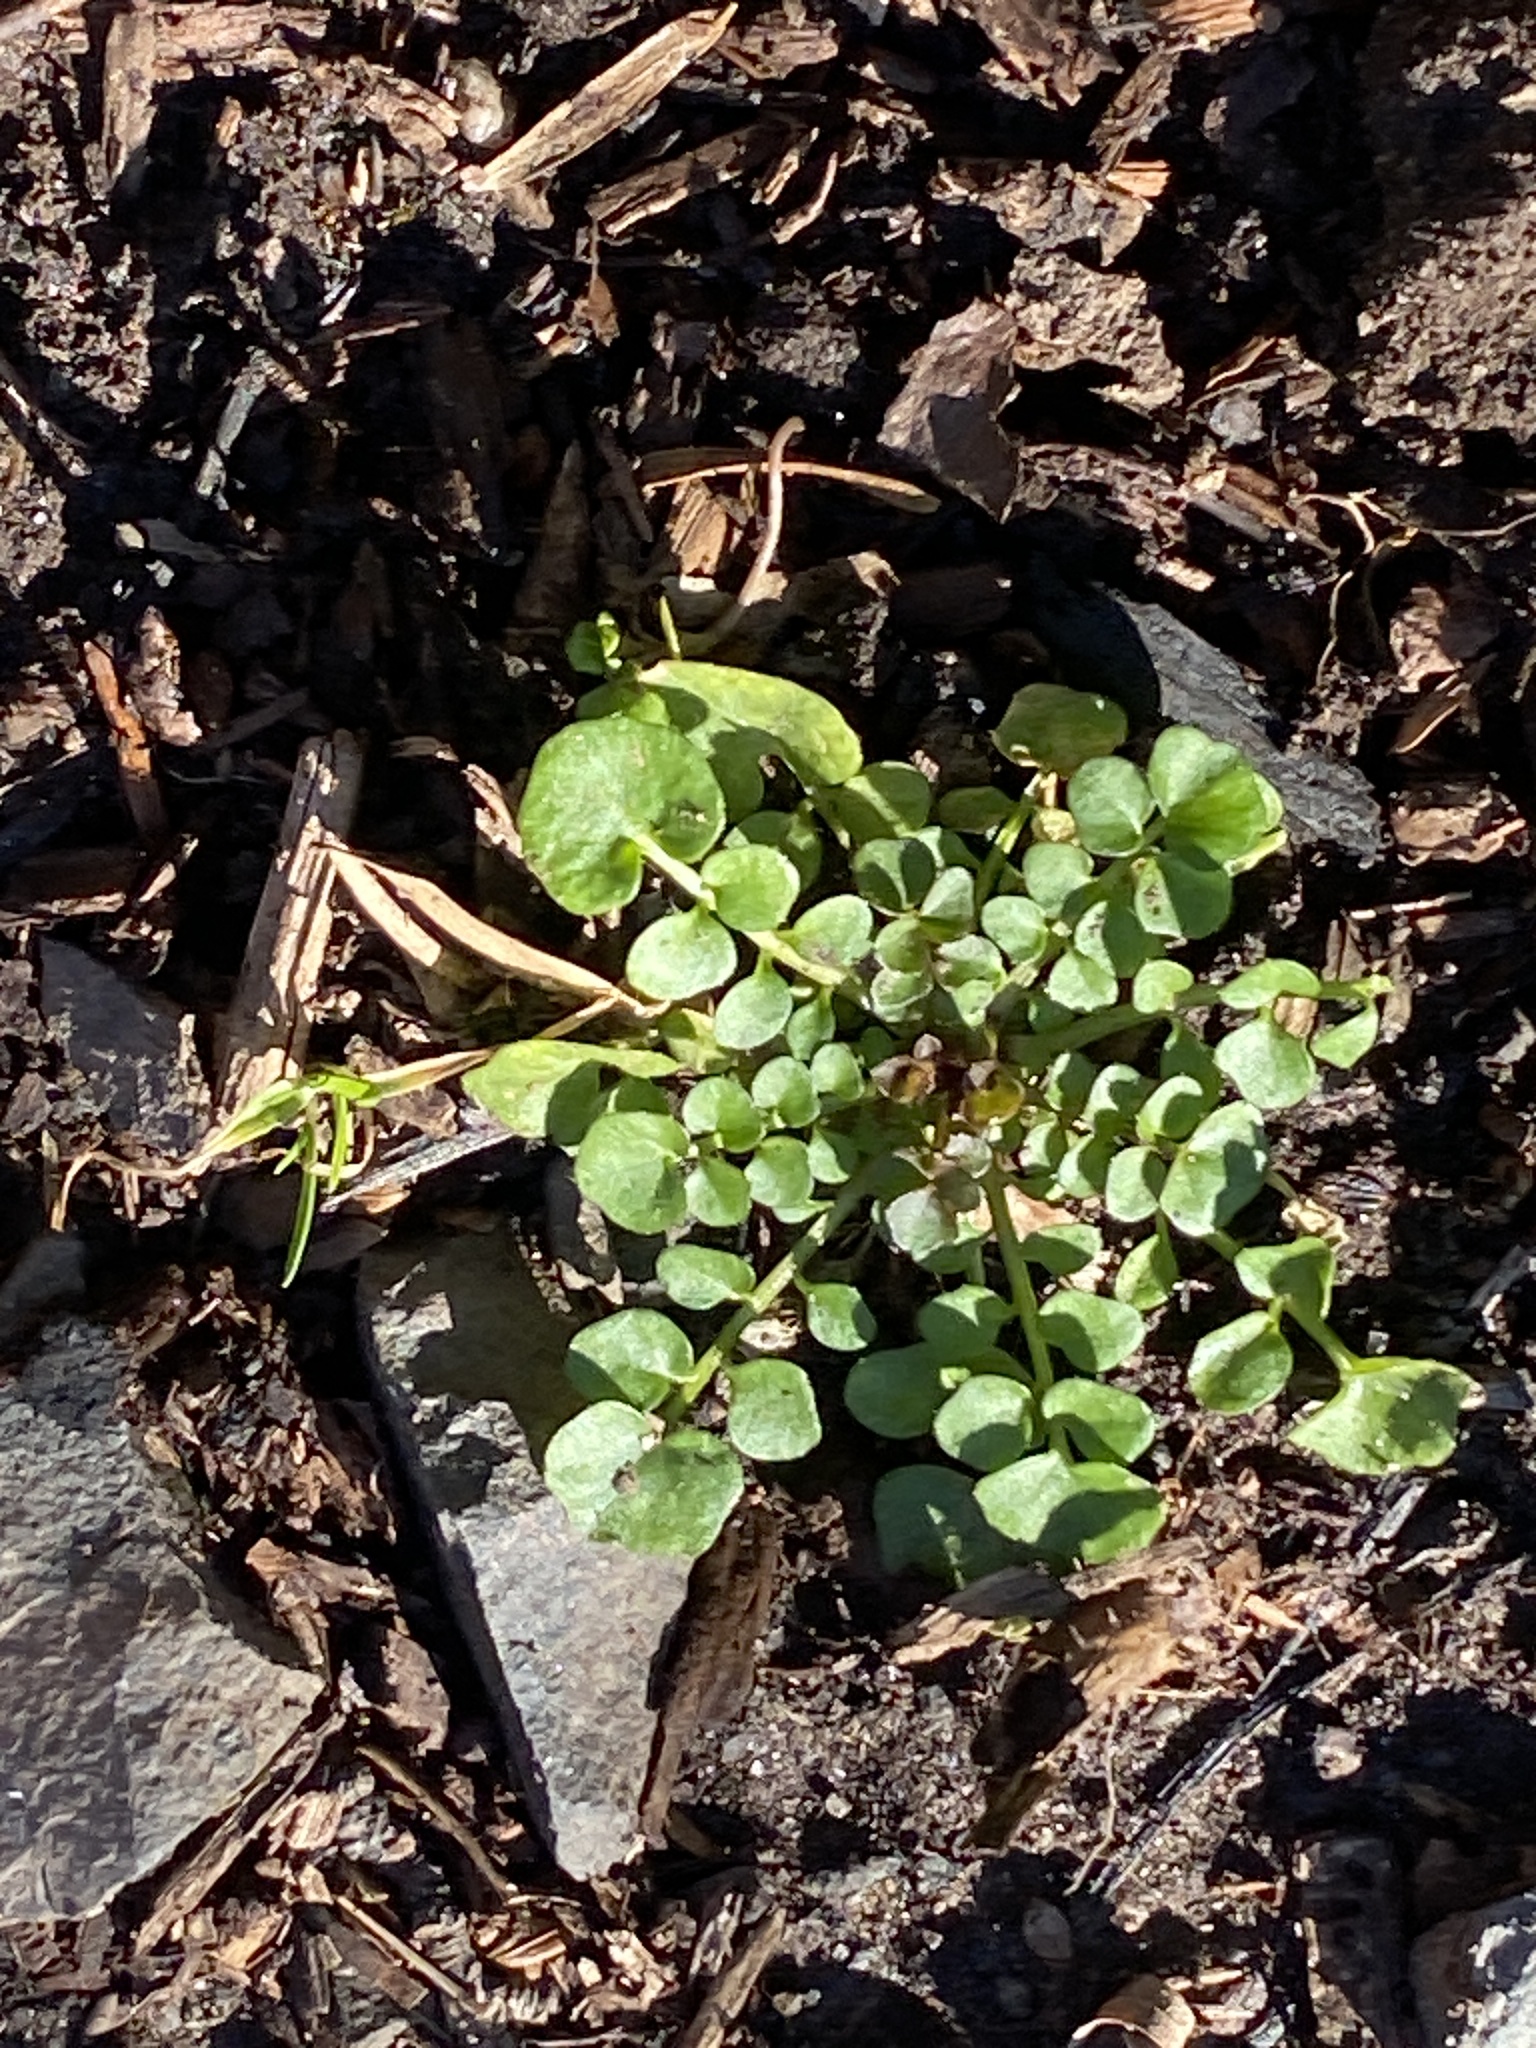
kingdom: Plantae
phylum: Tracheophyta
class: Magnoliopsida
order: Brassicales
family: Brassicaceae
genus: Cardamine
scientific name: Cardamine hirsuta
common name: Hairy bittercress
